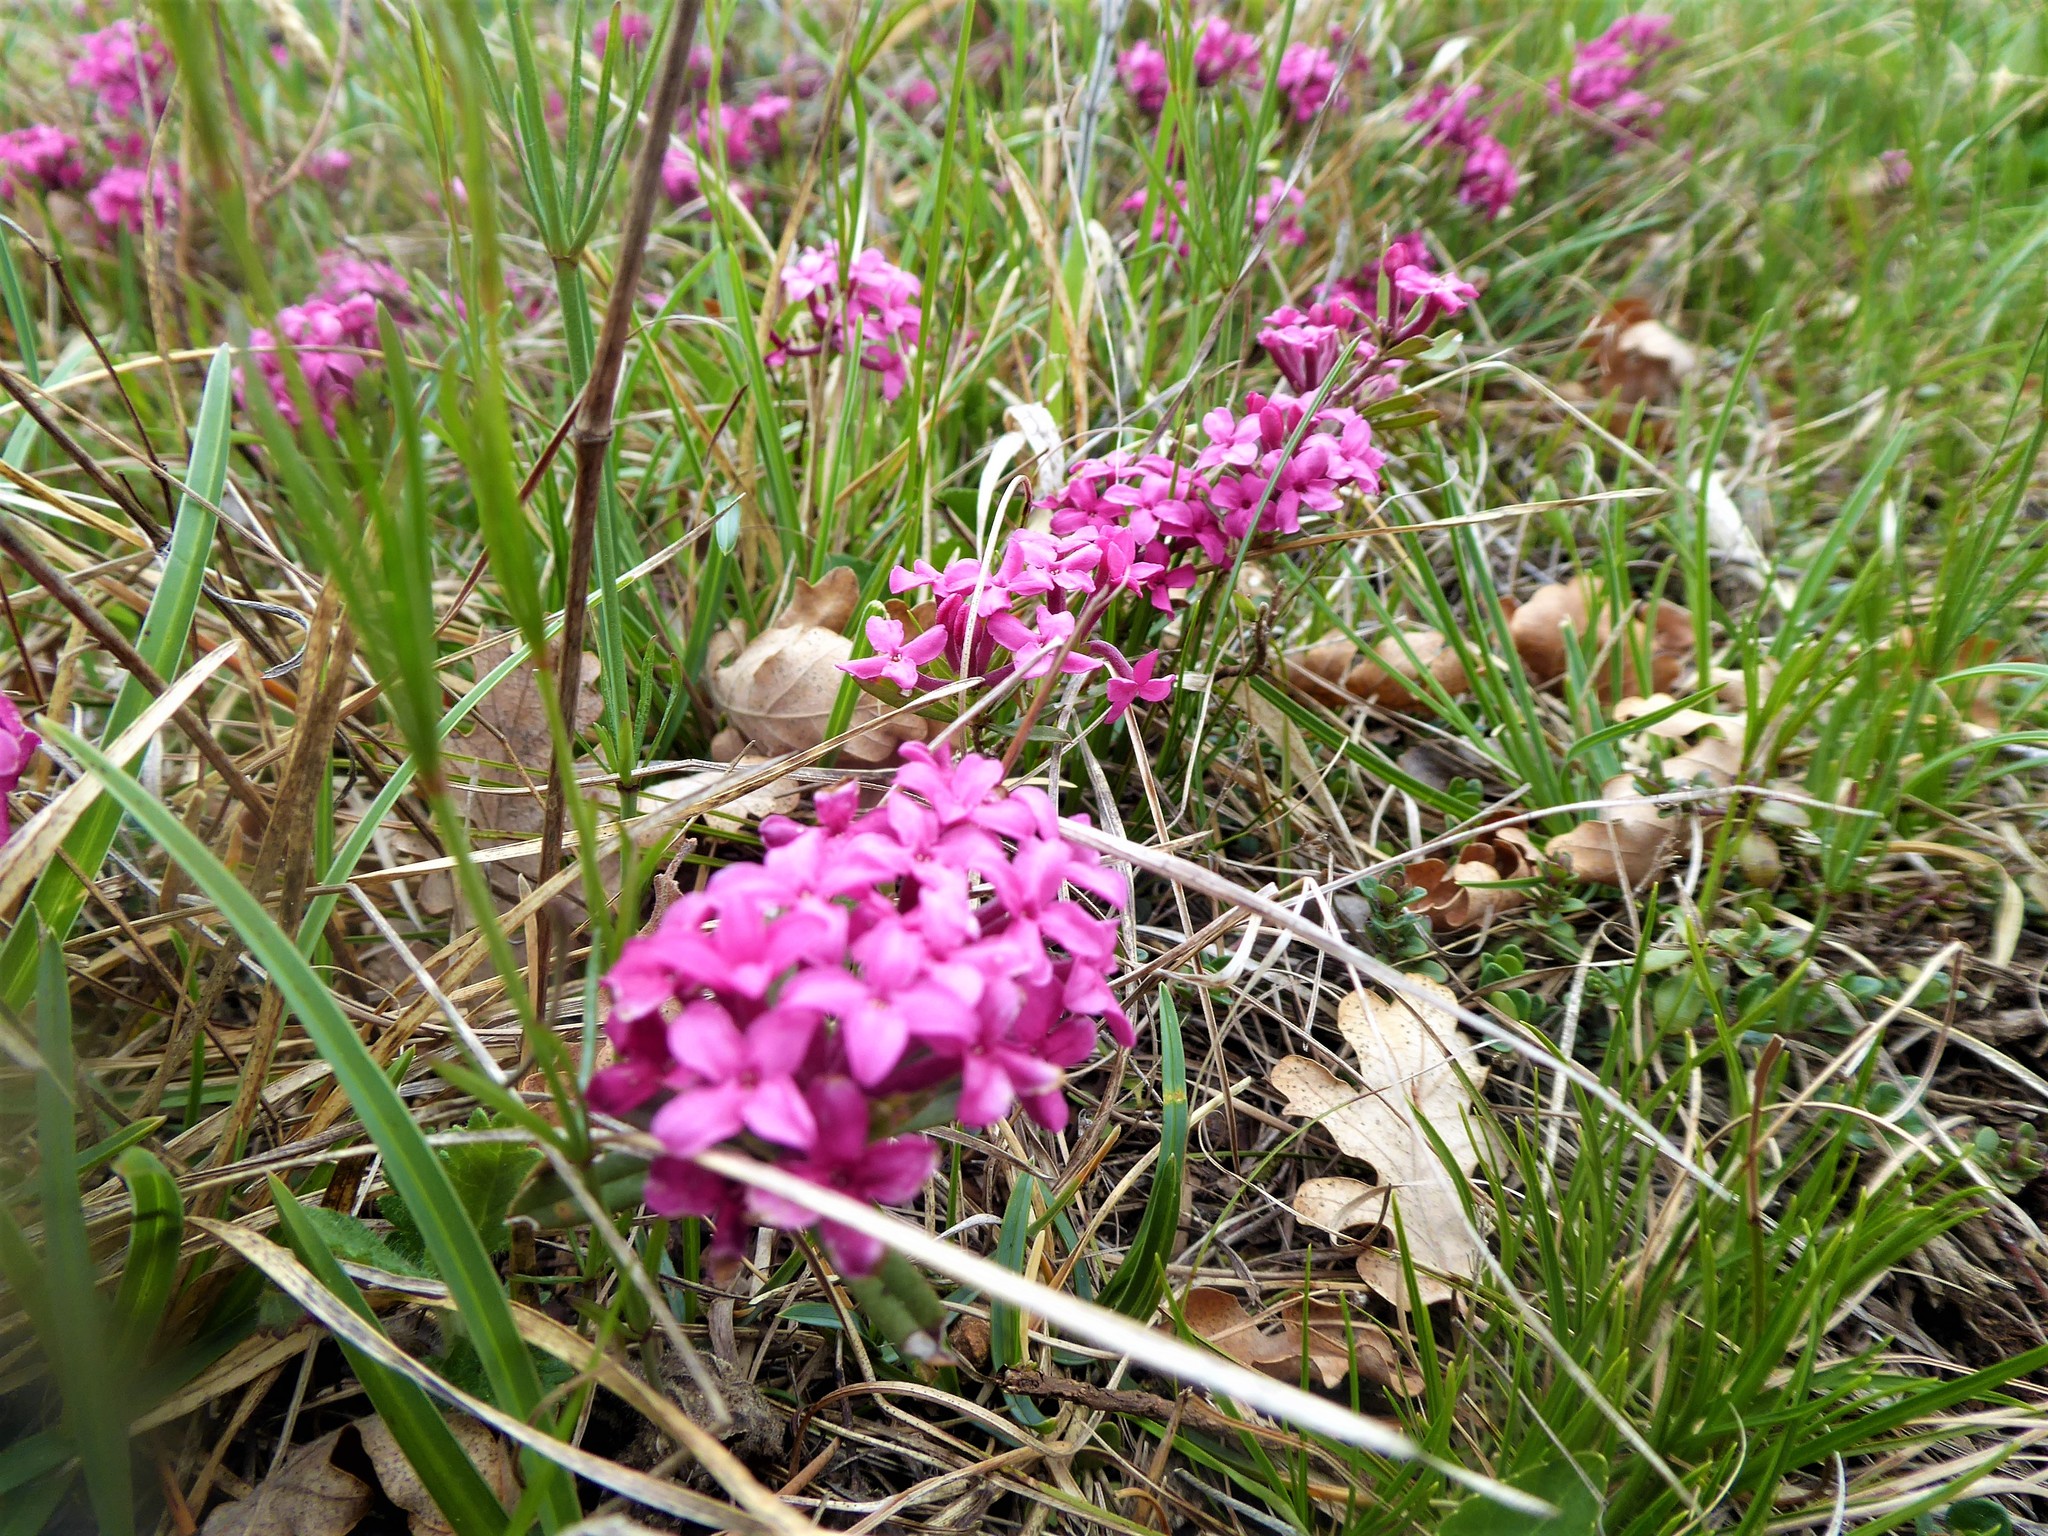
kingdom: Plantae
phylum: Tracheophyta
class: Magnoliopsida
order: Malvales
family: Thymelaeaceae
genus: Daphne
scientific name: Daphne cneorum
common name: Garland-flower
